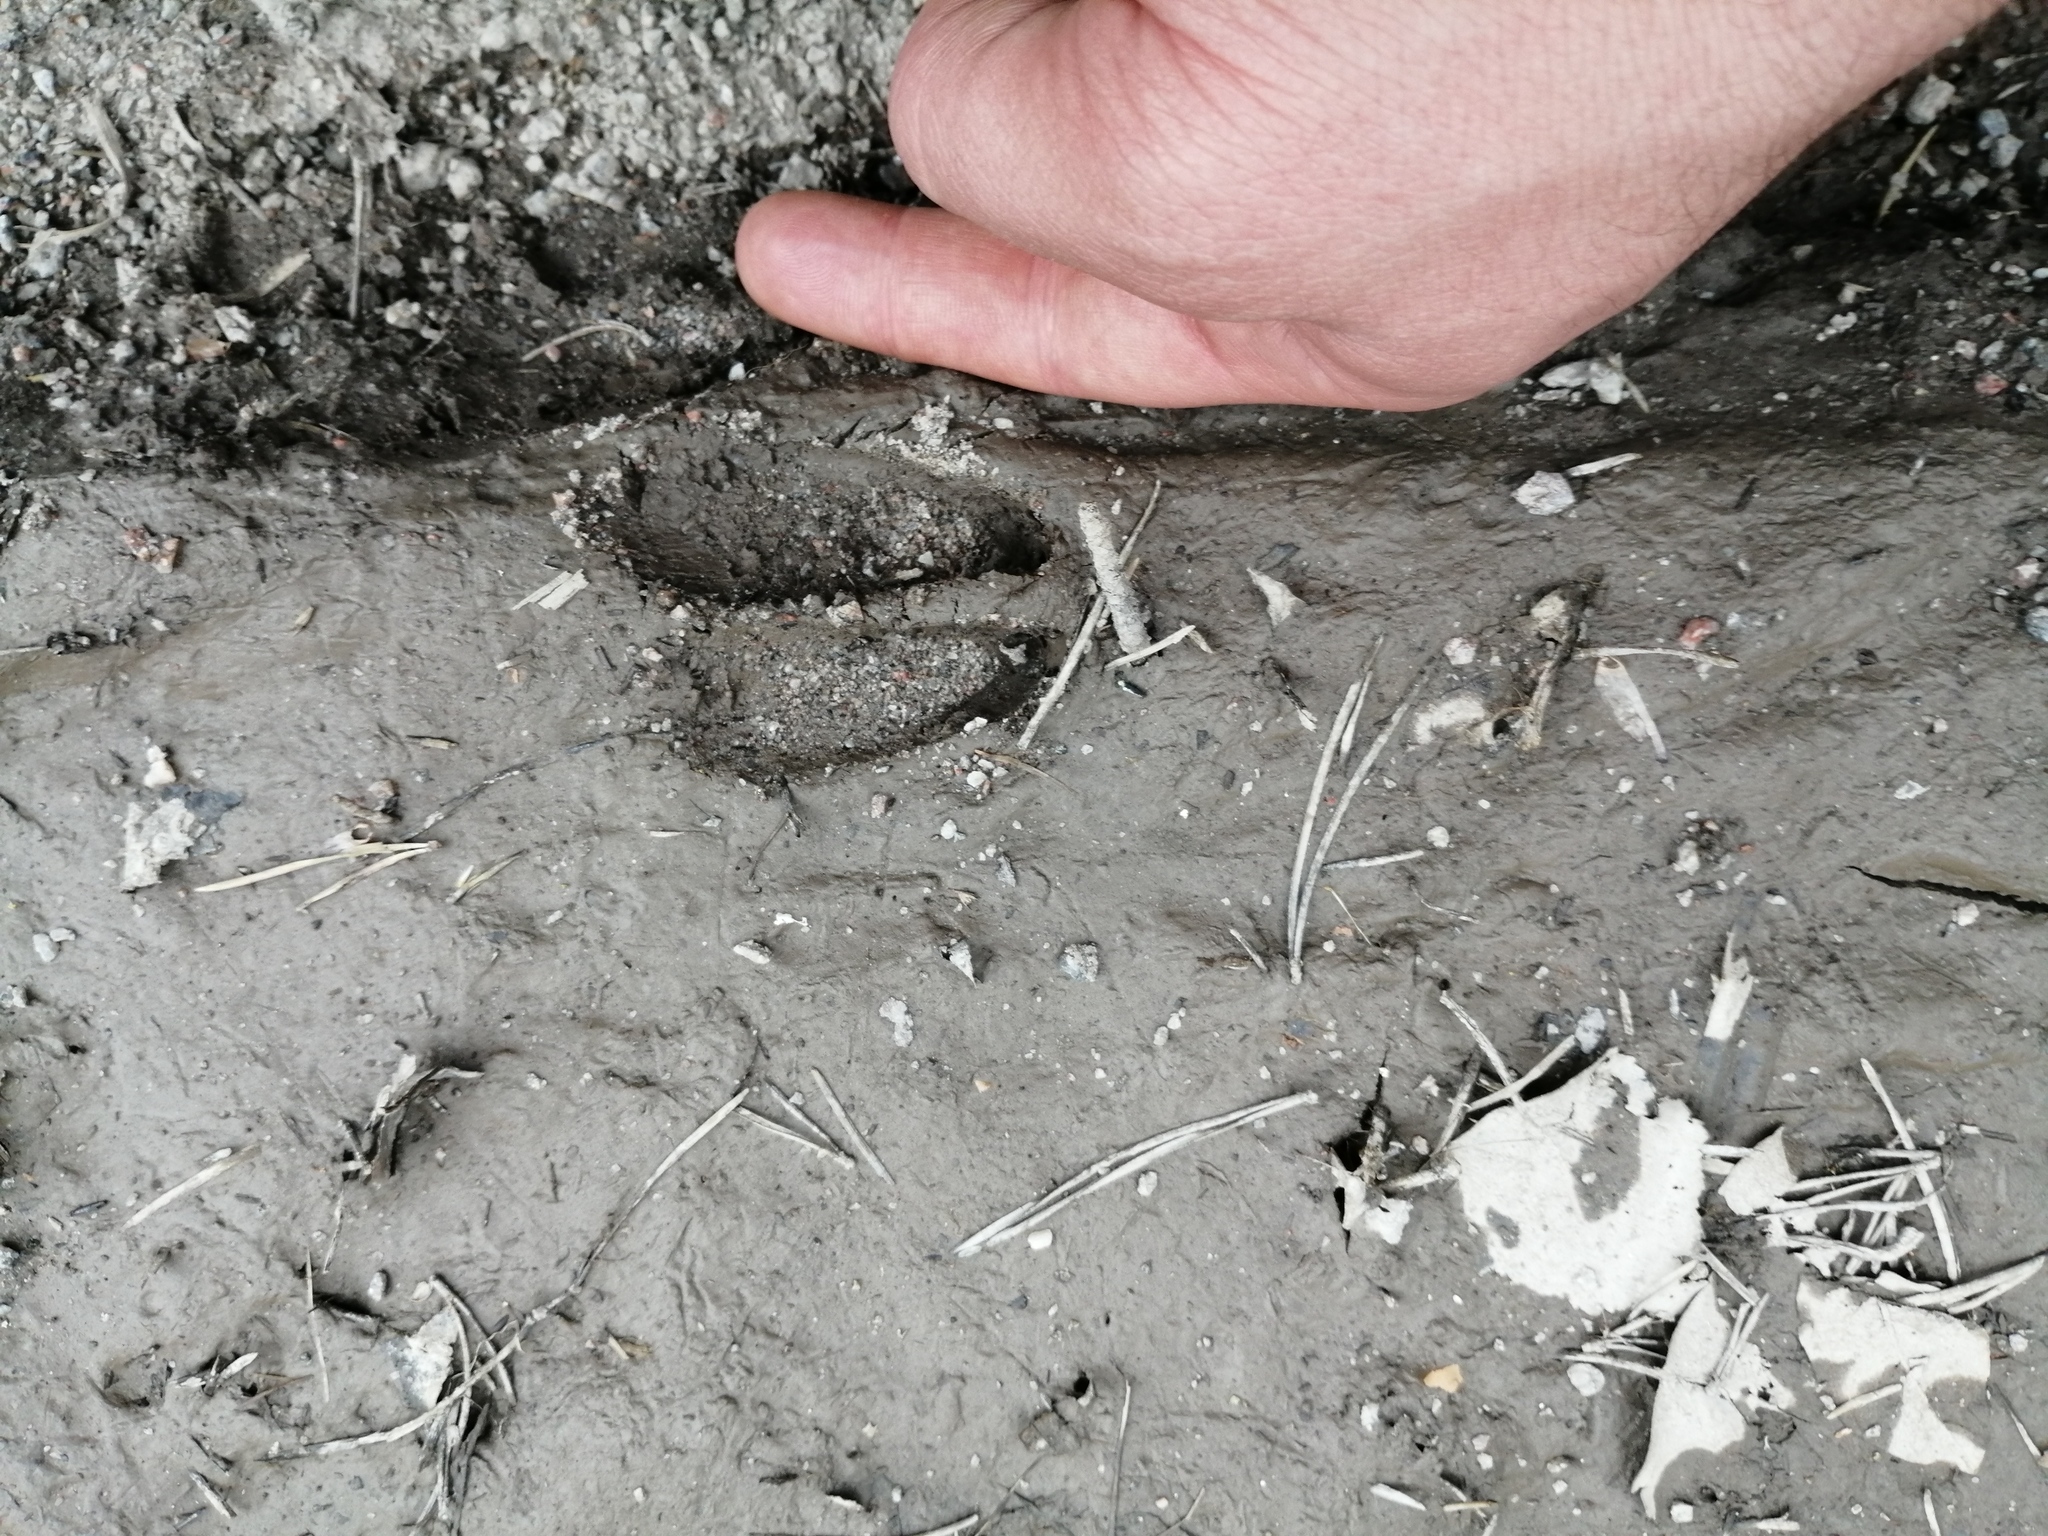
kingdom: Animalia
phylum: Chordata
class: Mammalia
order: Artiodactyla
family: Cervidae
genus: Capreolus
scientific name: Capreolus capreolus
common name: Western roe deer
